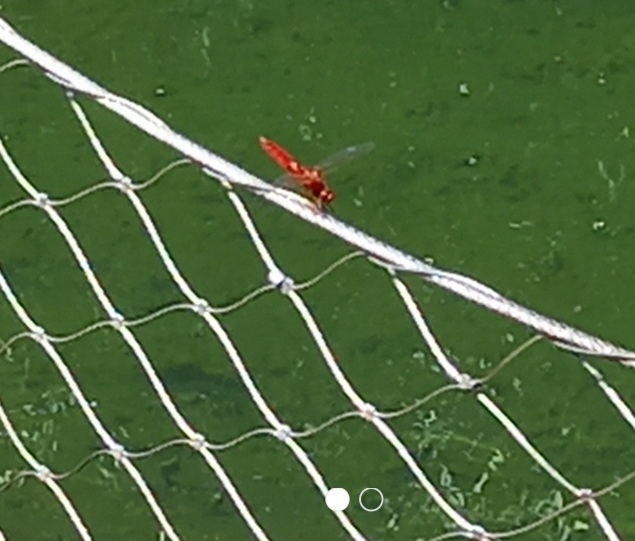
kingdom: Animalia
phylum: Arthropoda
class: Insecta
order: Odonata
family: Libellulidae
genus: Crocothemis
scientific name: Crocothemis erythraea
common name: Scarlet dragonfly
